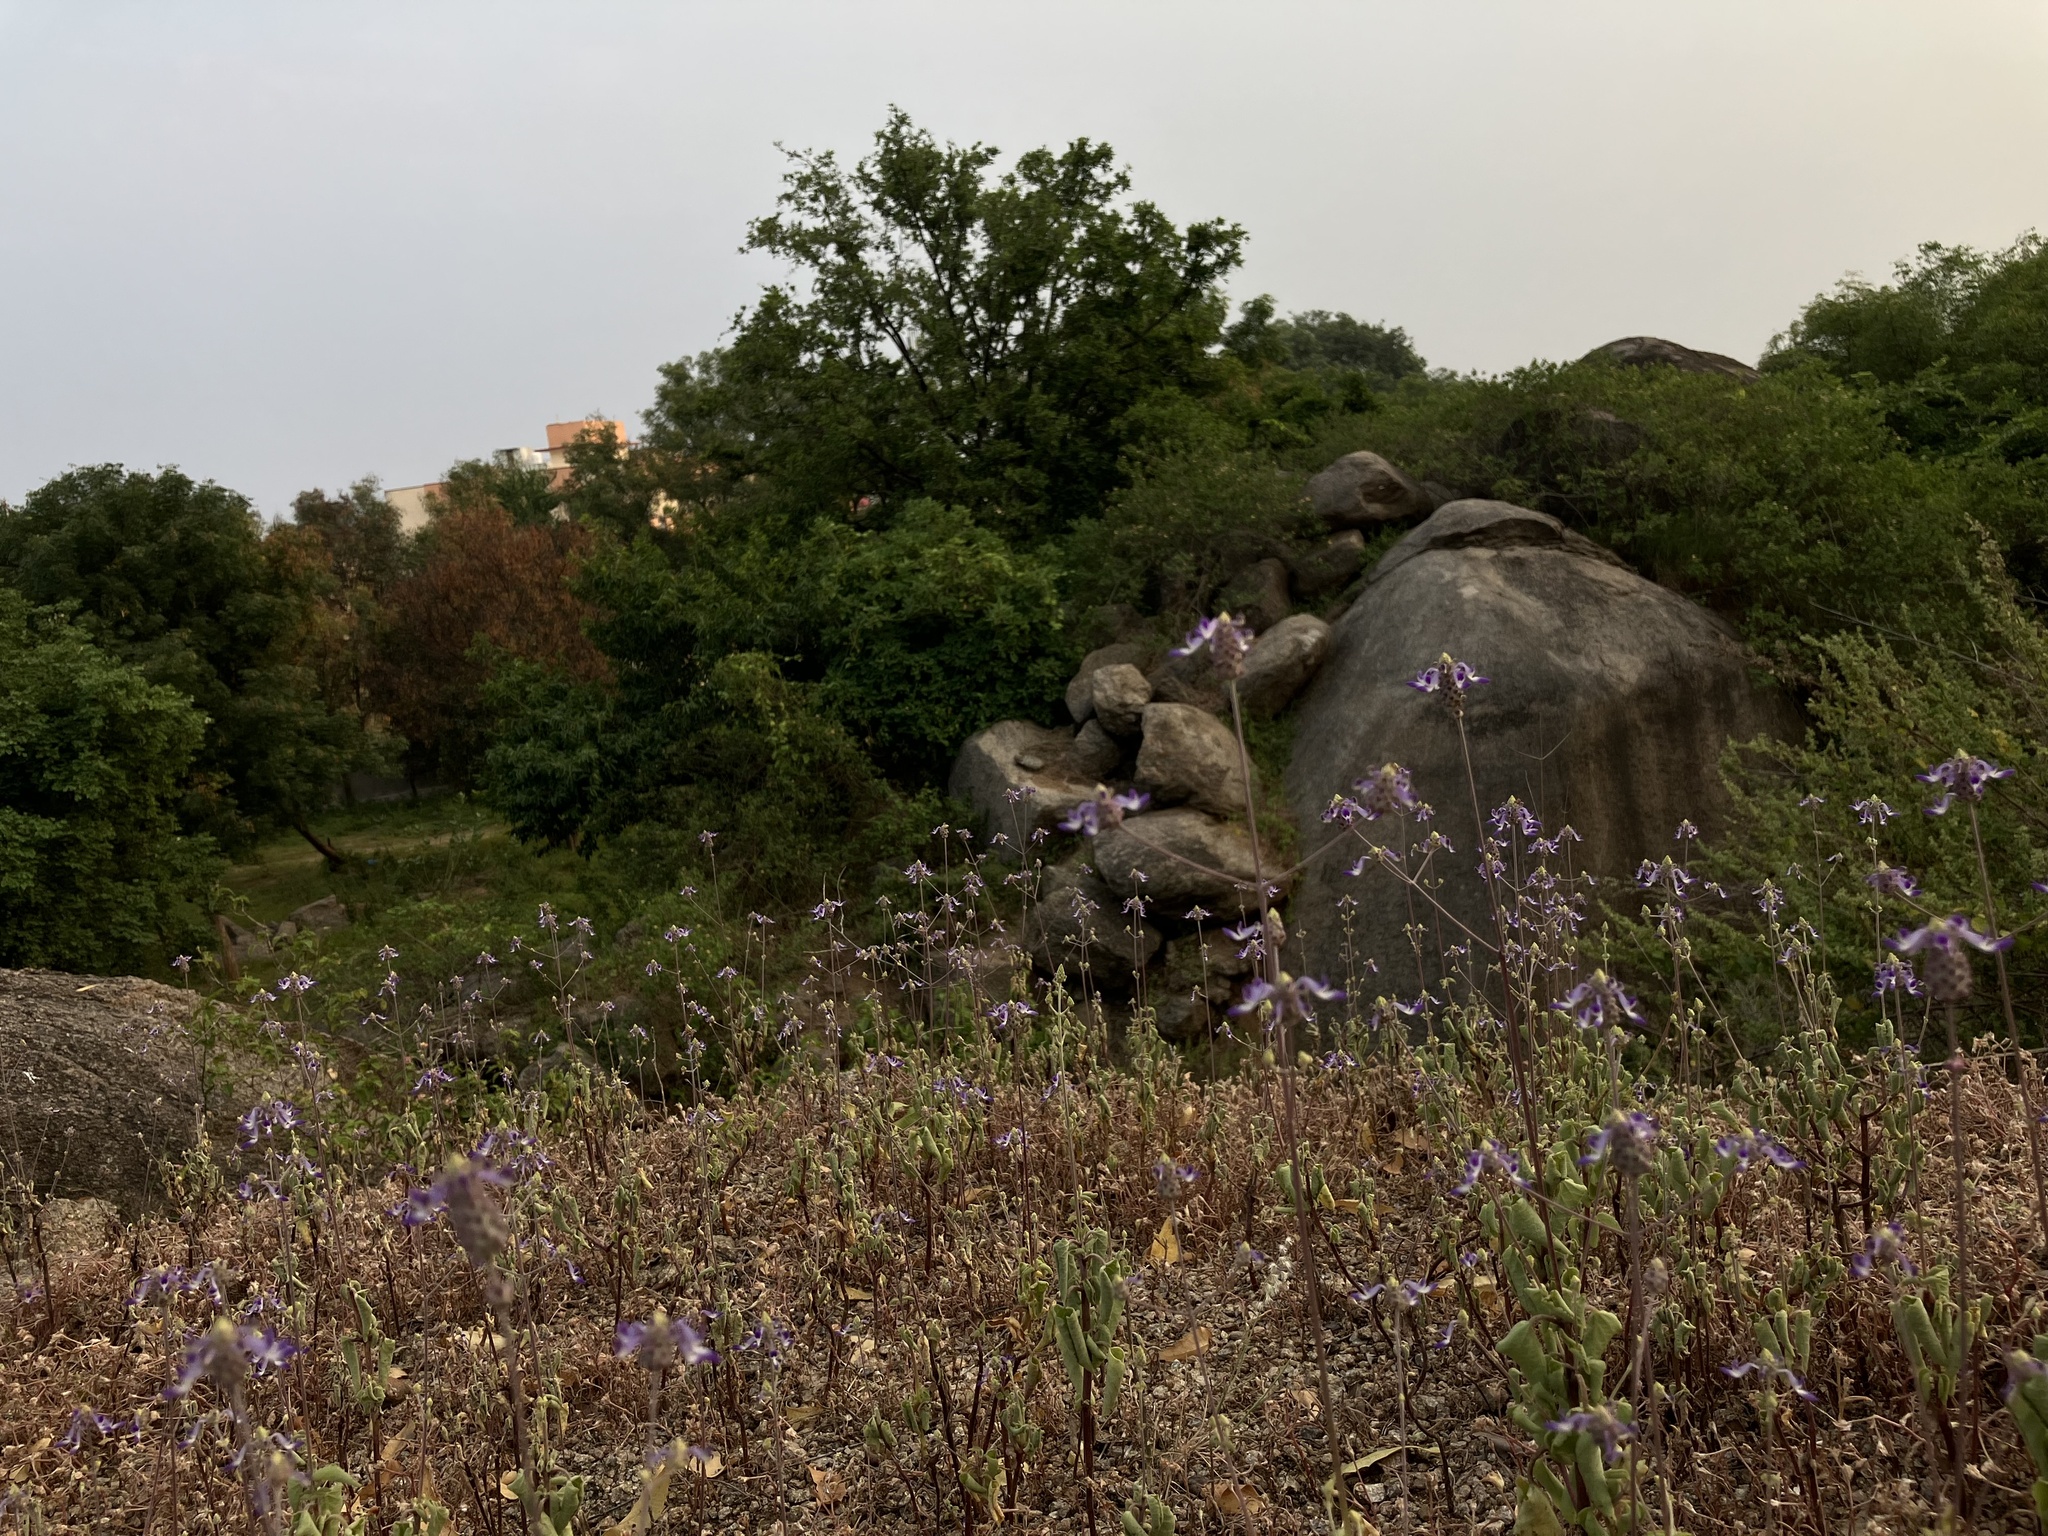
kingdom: Plantae
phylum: Tracheophyta
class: Magnoliopsida
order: Lamiales
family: Lamiaceae
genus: Coleus
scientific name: Coleus strobilifer
